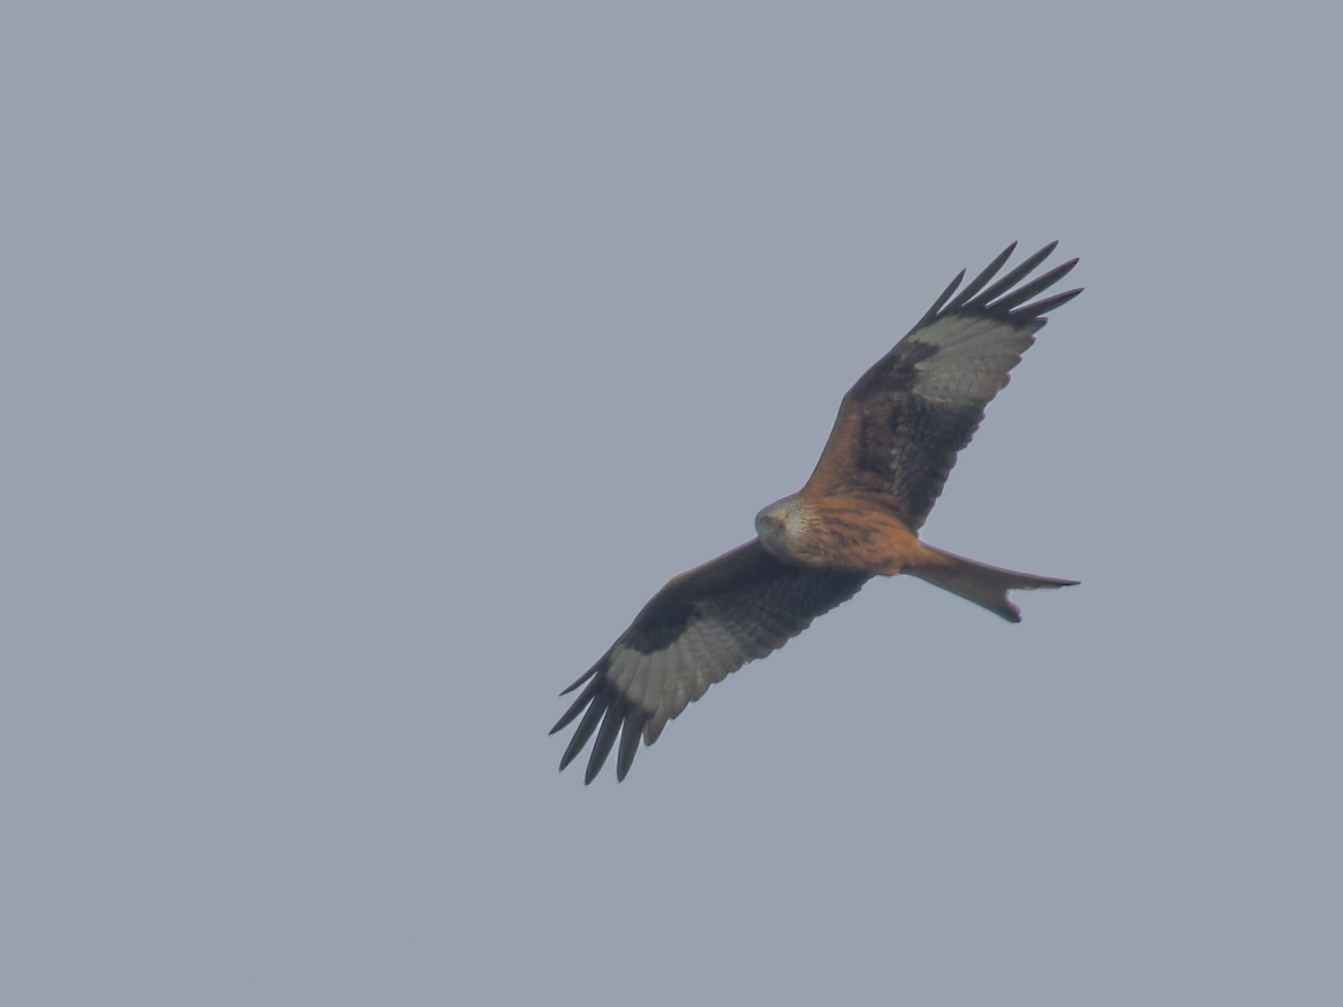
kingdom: Animalia
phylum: Chordata
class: Aves
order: Accipitriformes
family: Accipitridae
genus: Milvus
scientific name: Milvus milvus
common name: Red kite
